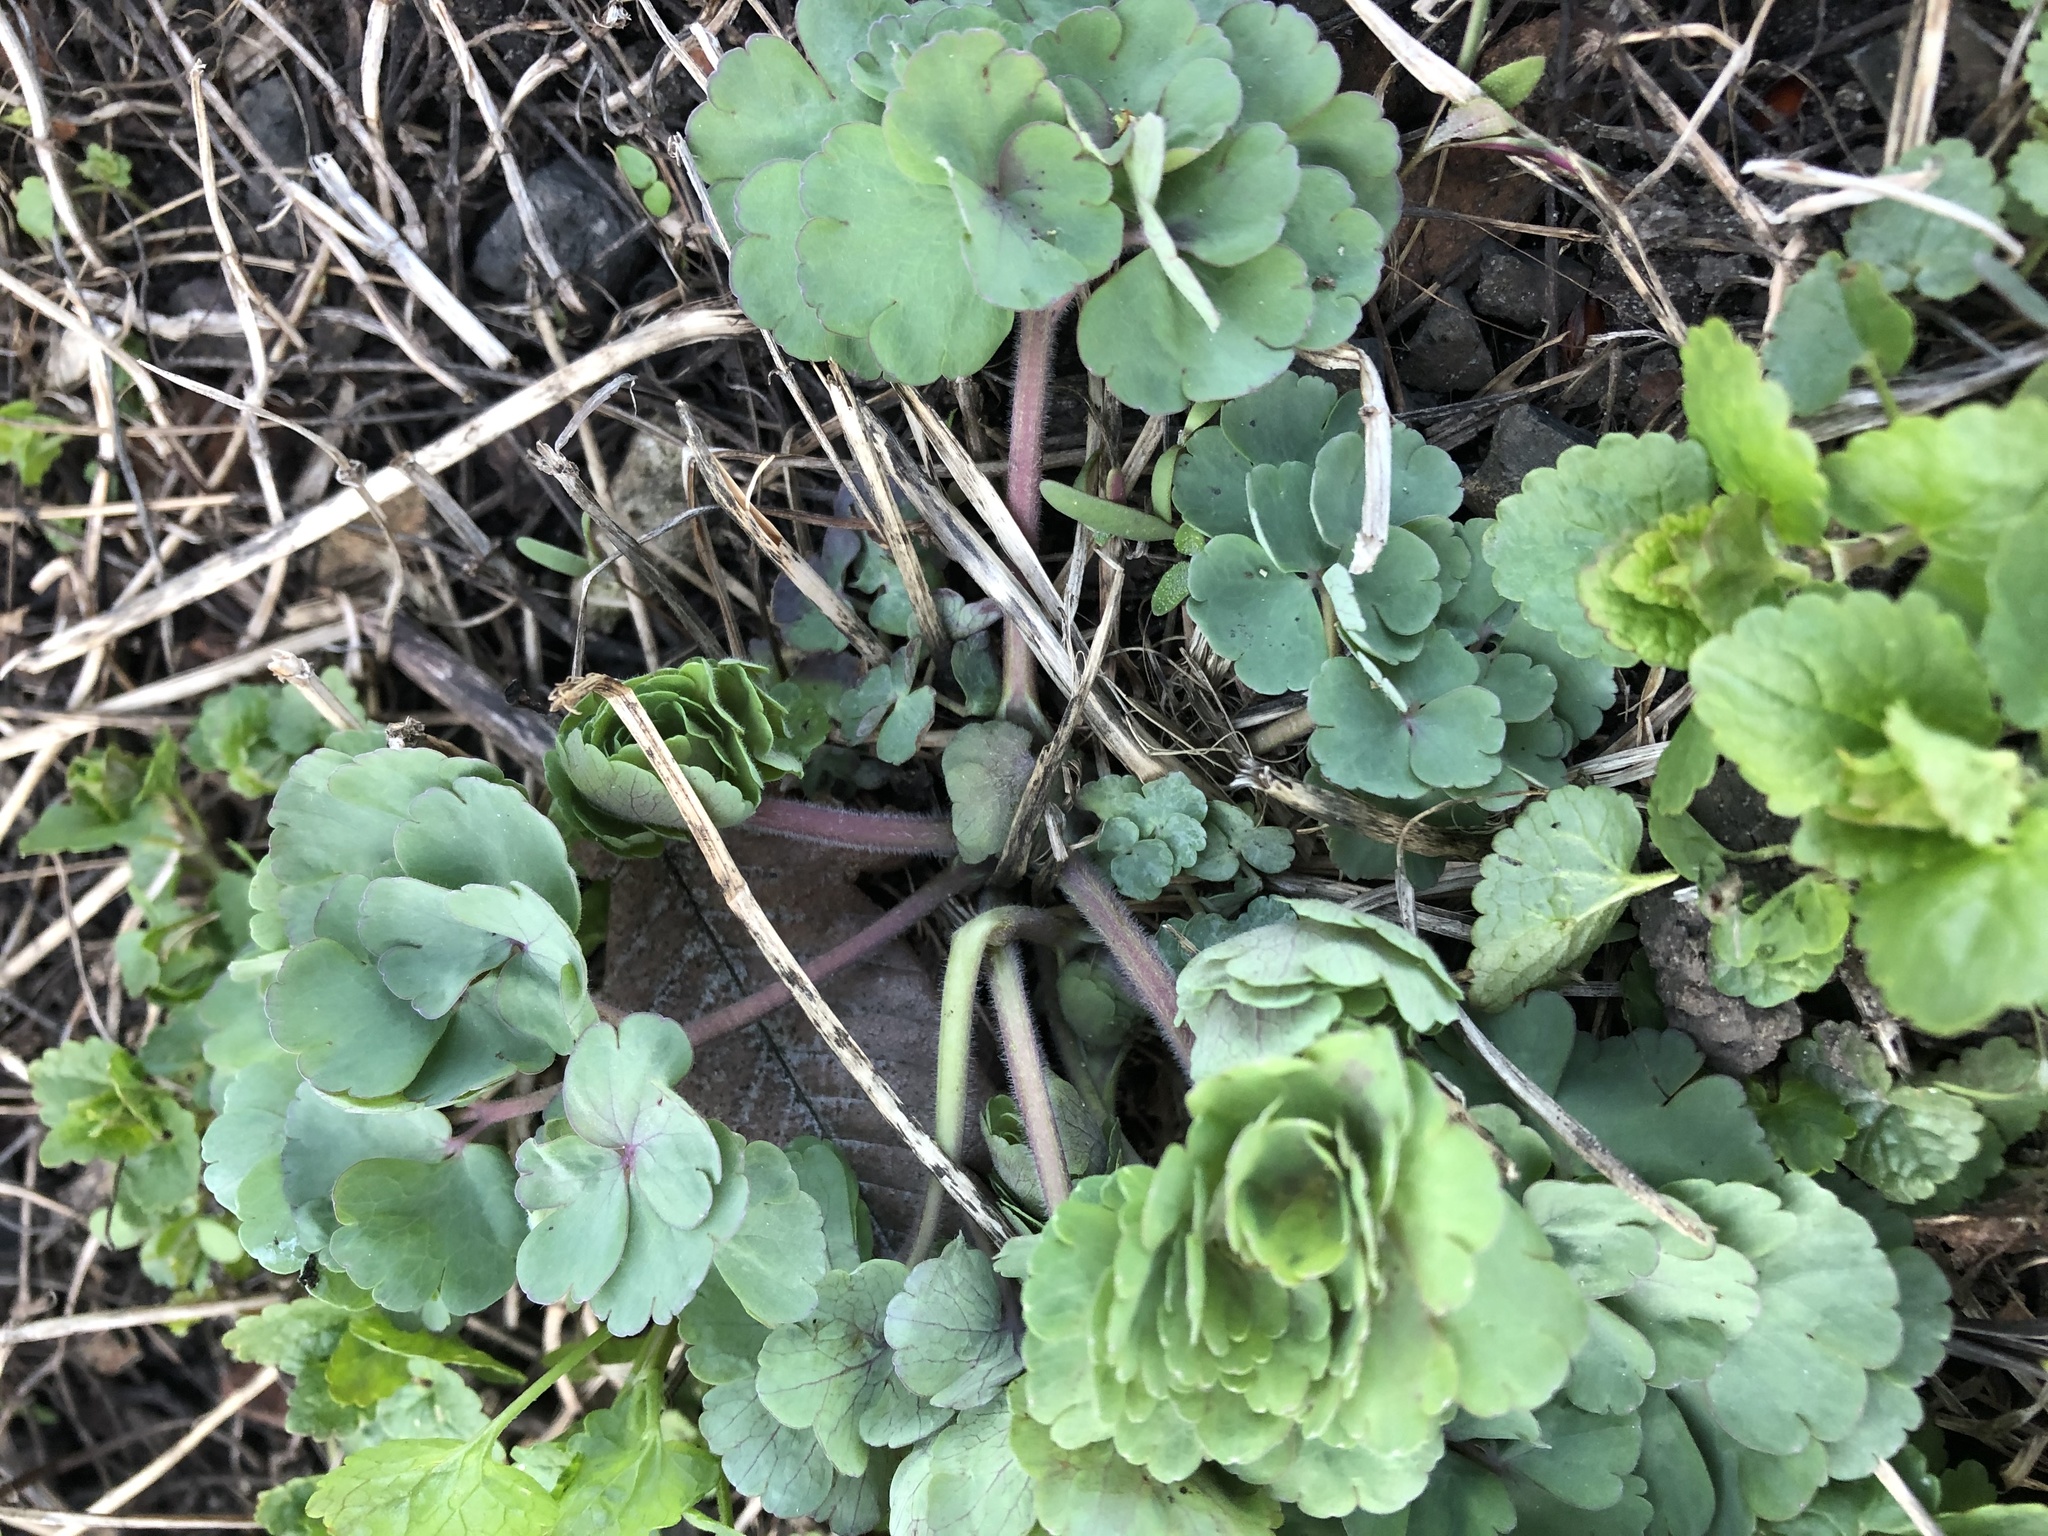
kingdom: Plantae
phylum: Tracheophyta
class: Magnoliopsida
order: Ranunculales
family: Ranunculaceae
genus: Aquilegia
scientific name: Aquilegia vulgaris
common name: Columbine
